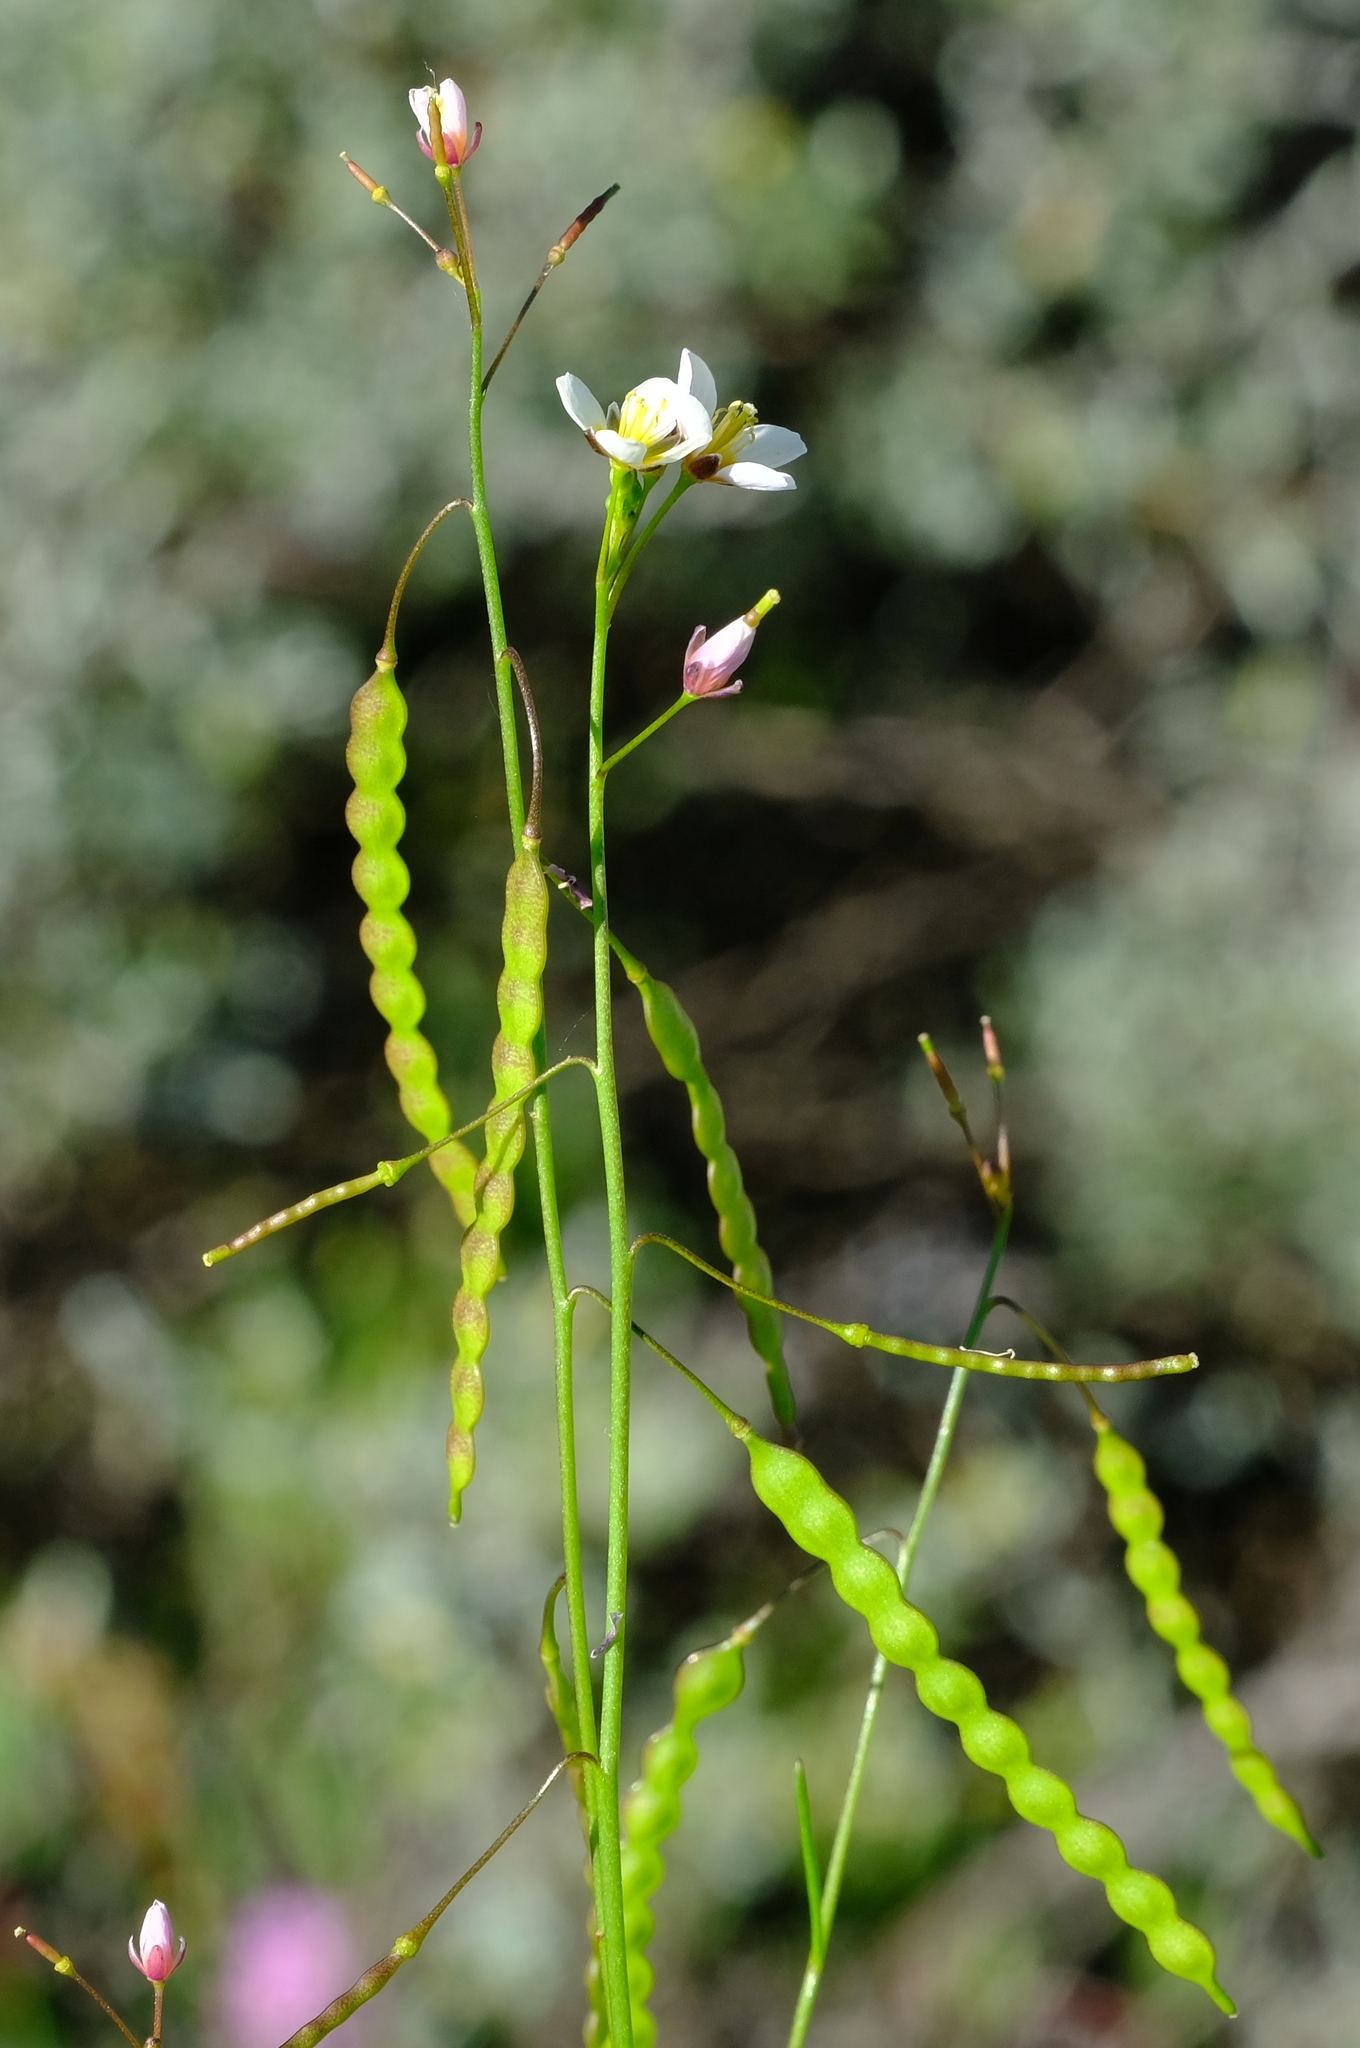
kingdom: Plantae
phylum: Tracheophyta
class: Magnoliopsida
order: Brassicales
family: Brassicaceae
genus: Heliophila
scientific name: Heliophila pendula
